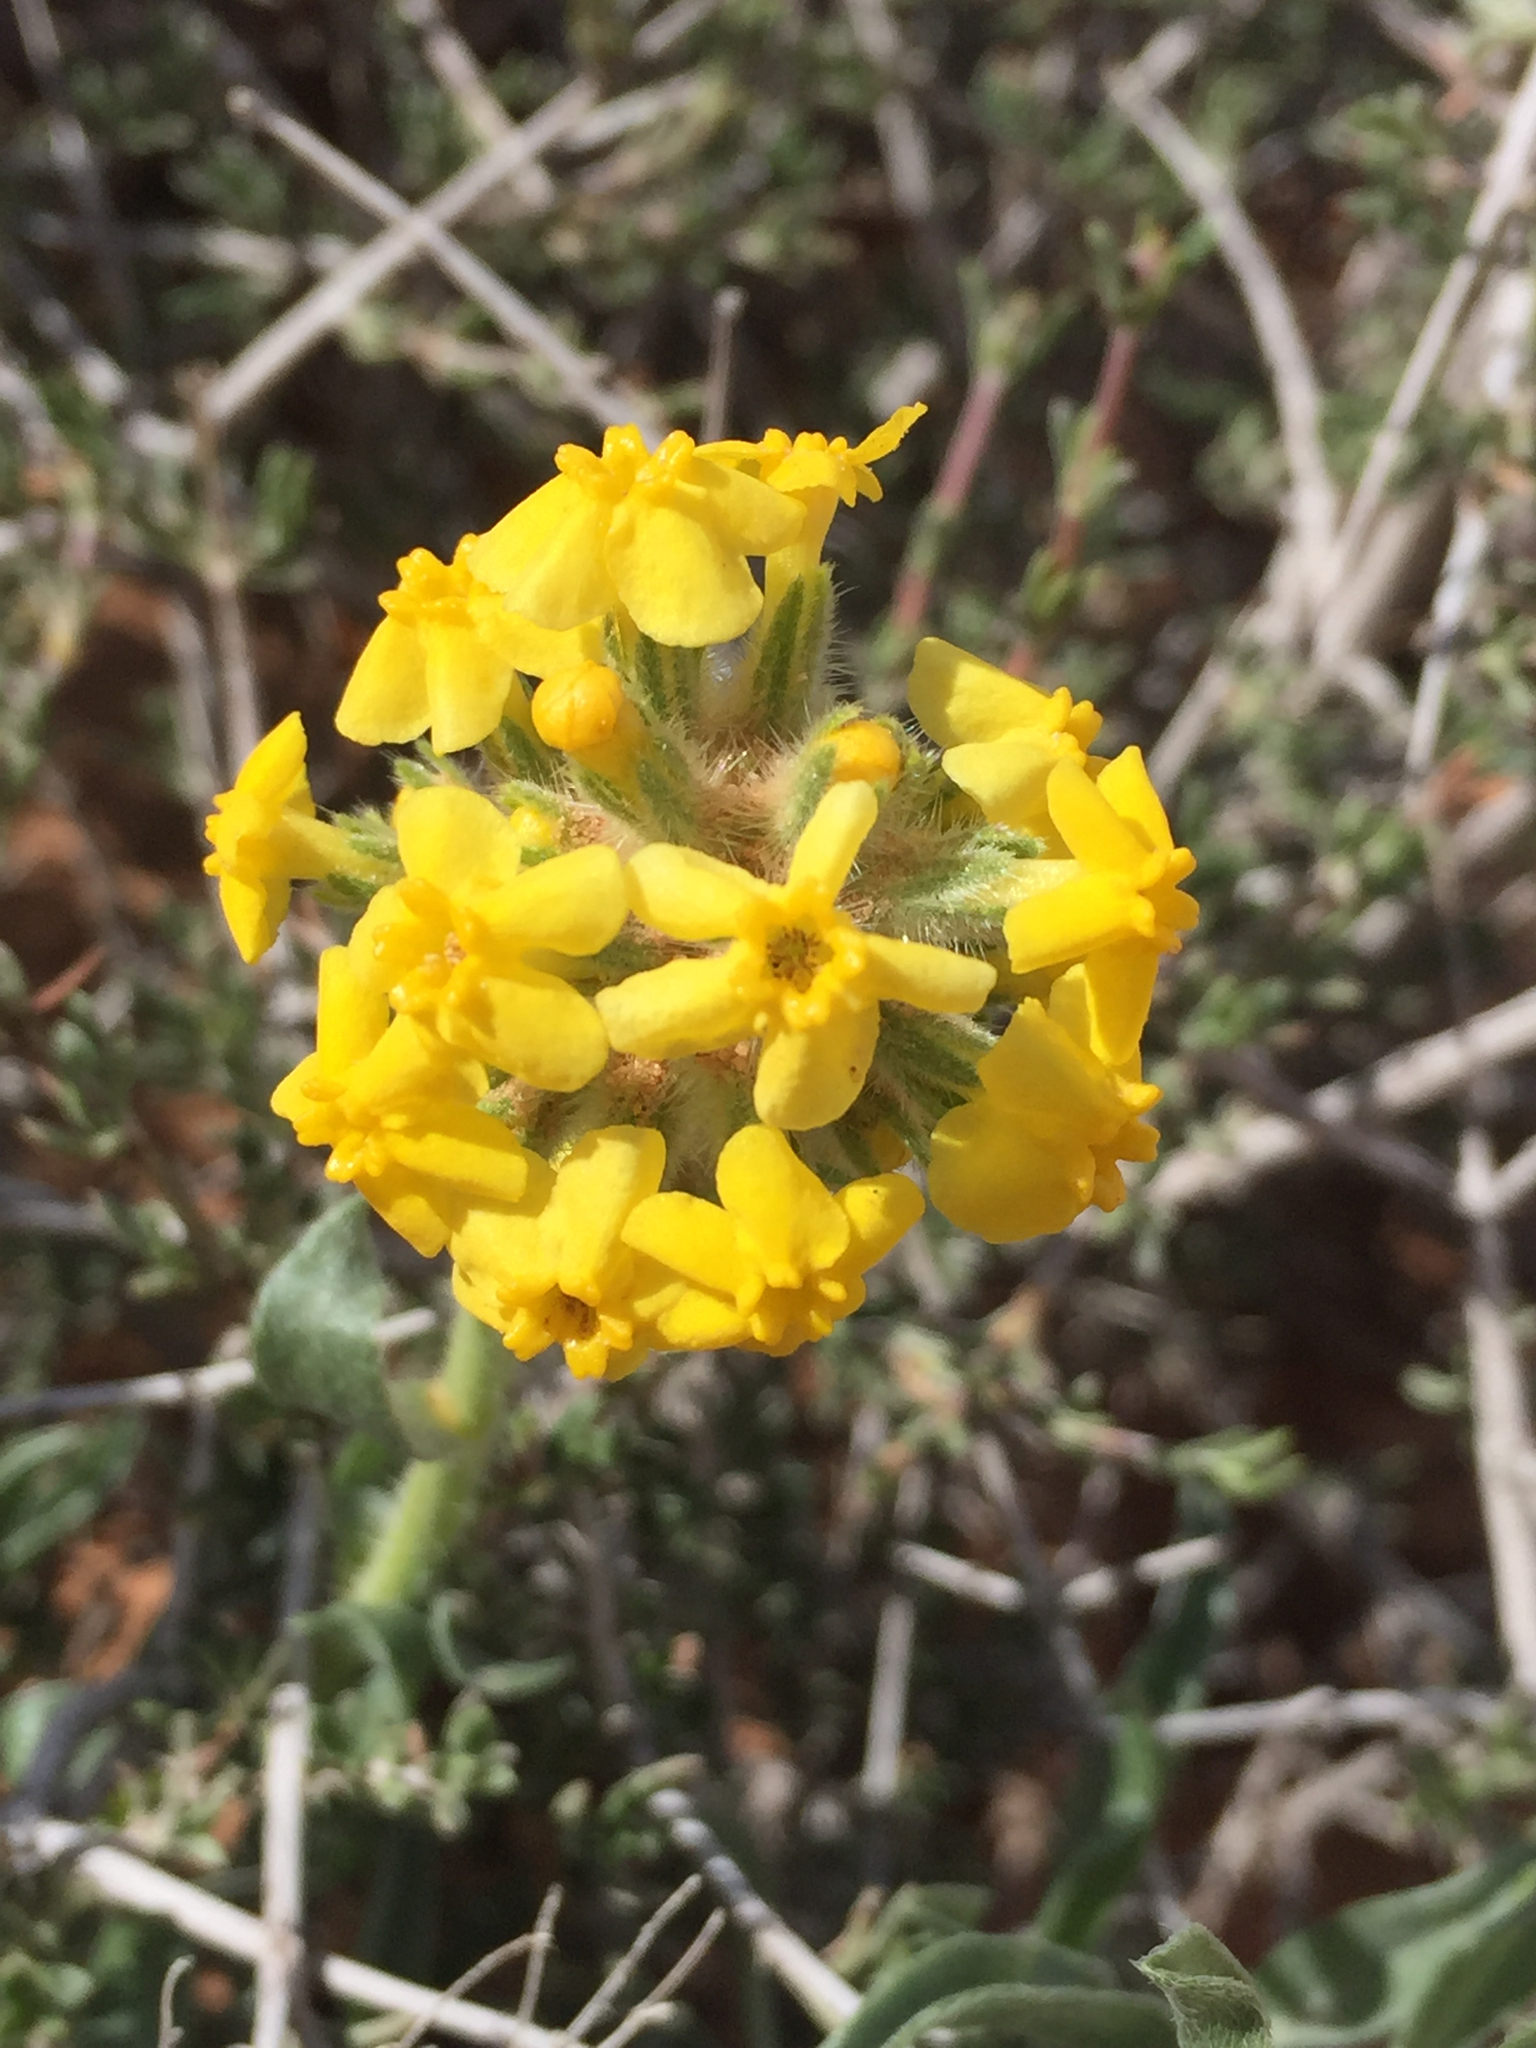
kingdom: Plantae
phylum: Tracheophyta
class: Magnoliopsida
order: Boraginales
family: Boraginaceae
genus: Oreocarya
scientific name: Oreocarya flava
